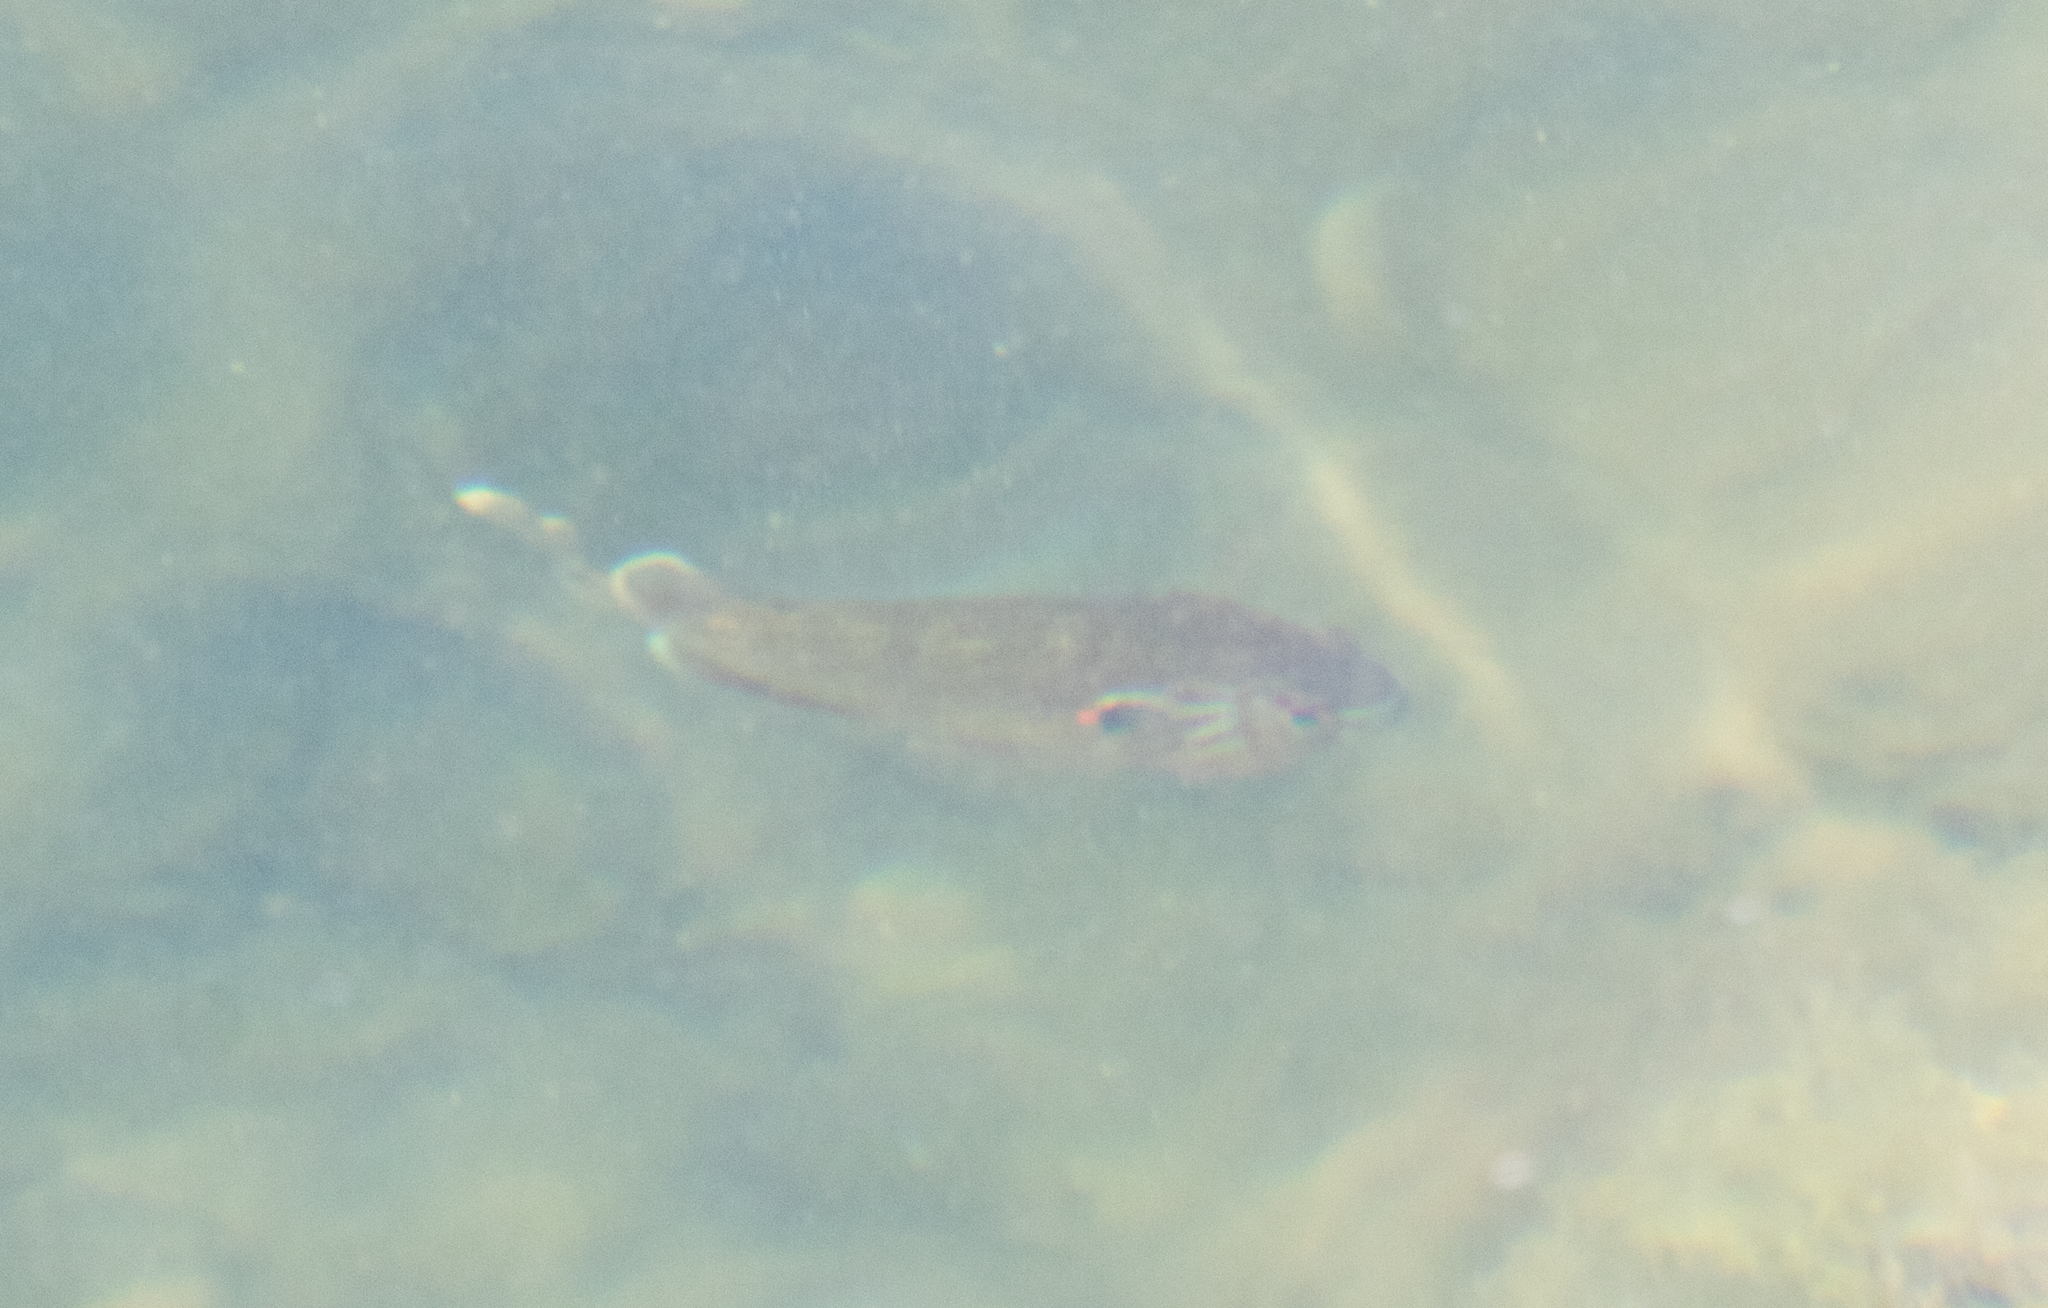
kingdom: Animalia
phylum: Chordata
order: Perciformes
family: Centrarchidae
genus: Lepomis
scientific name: Lepomis gibbosus
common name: Pumpkinseed
